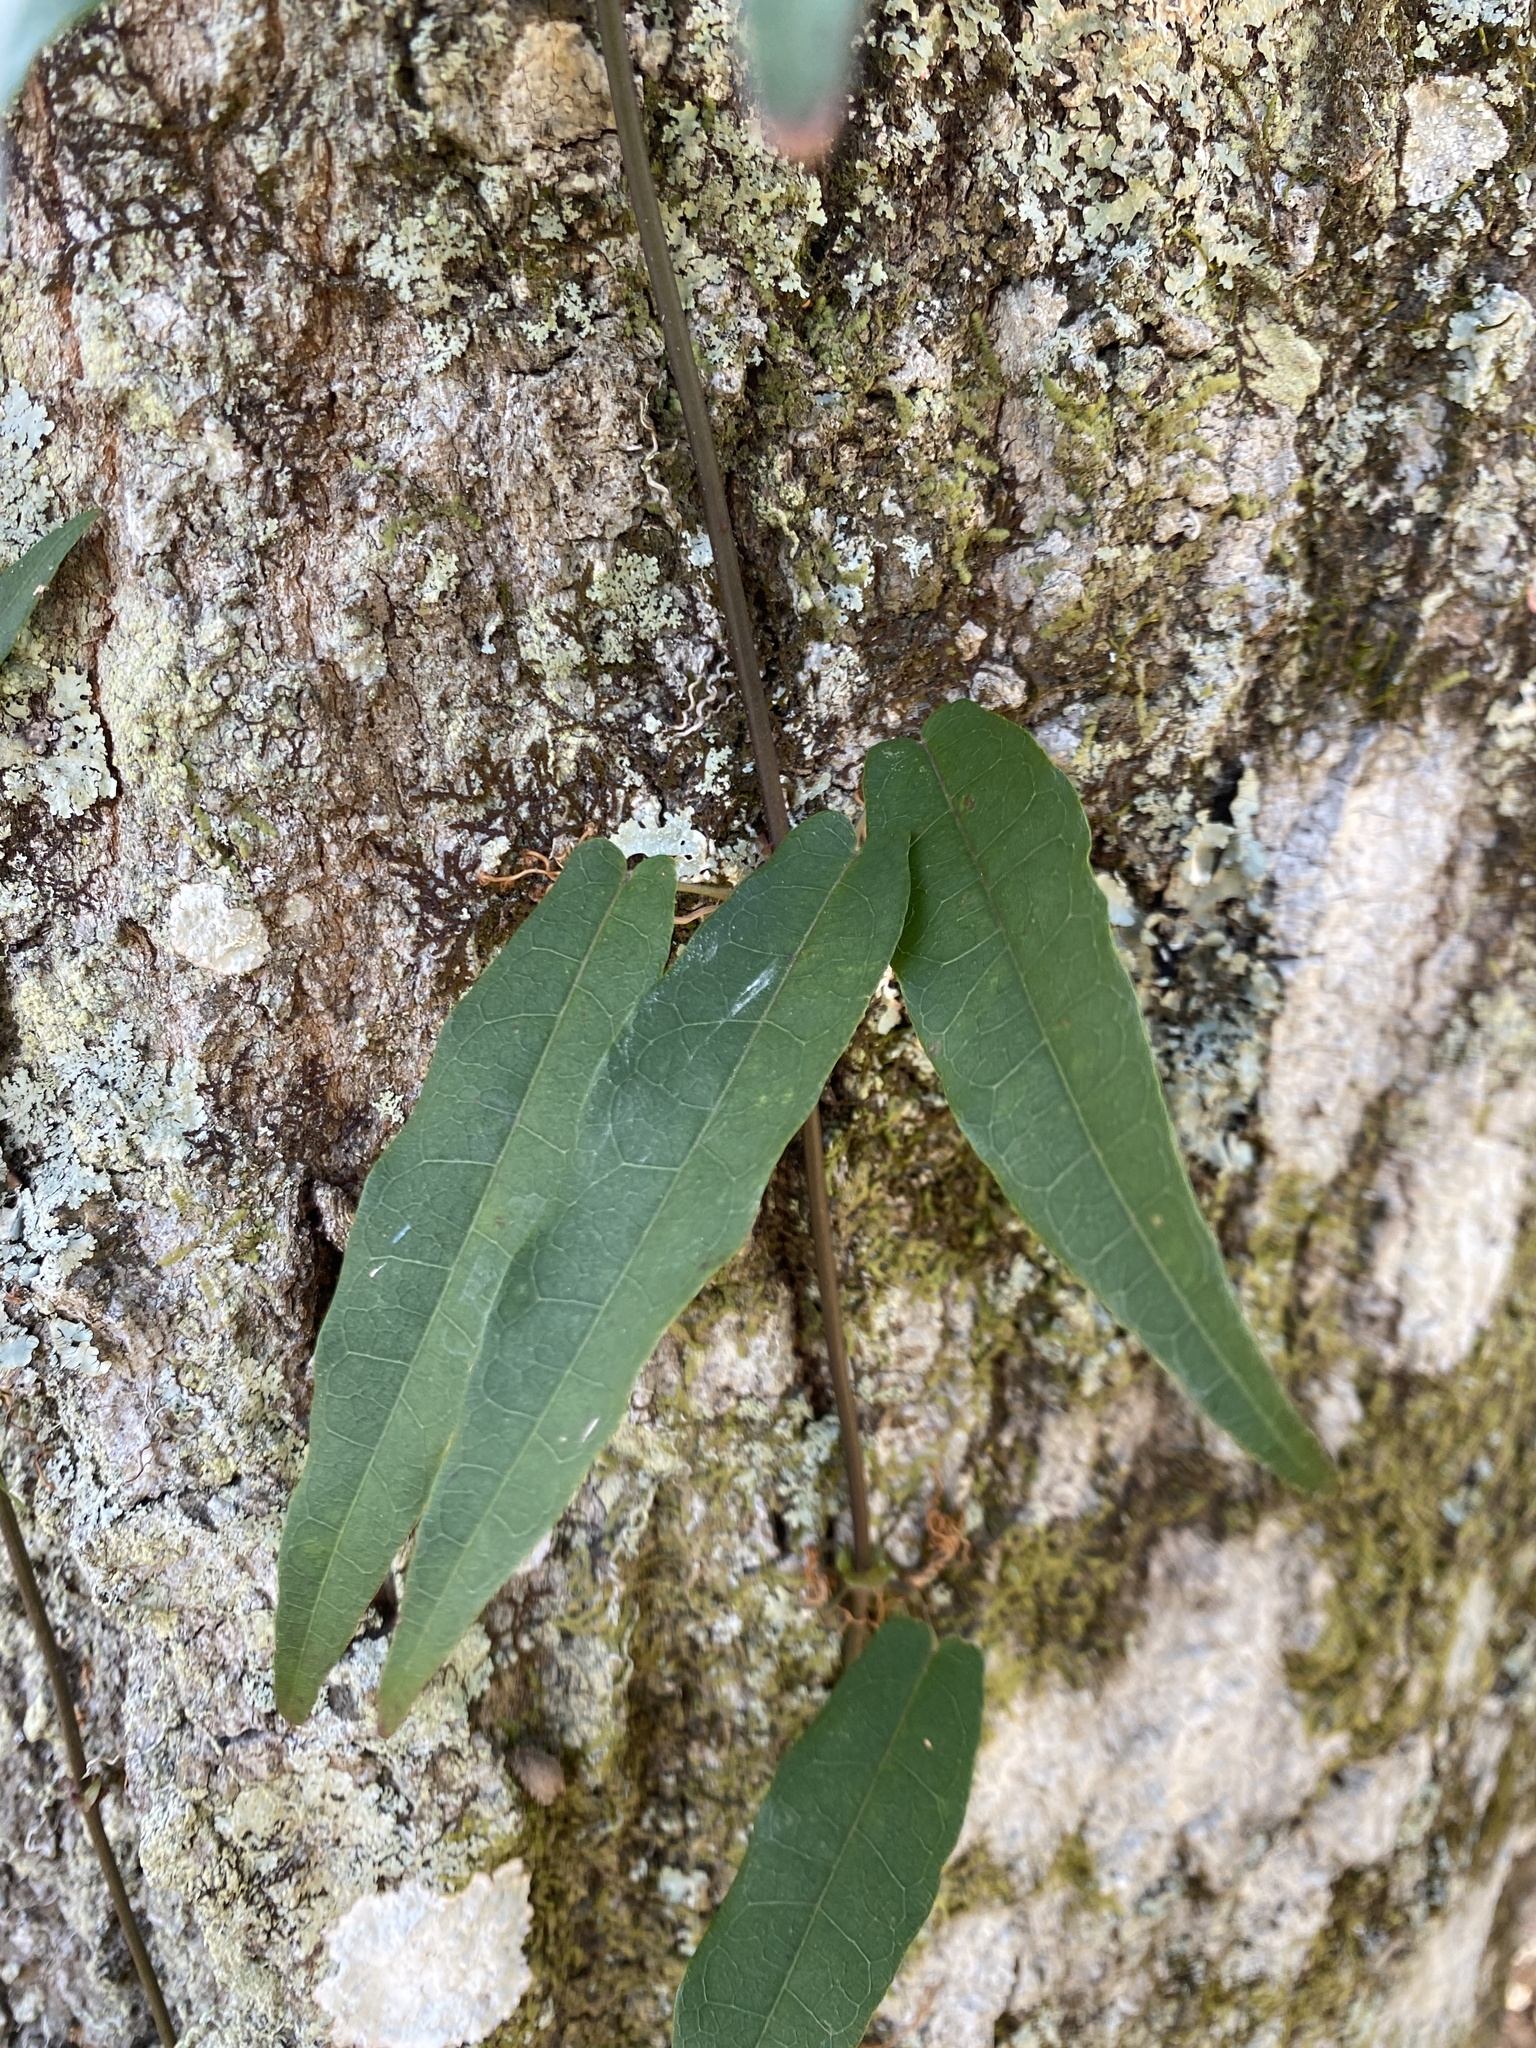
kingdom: Plantae
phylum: Tracheophyta
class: Magnoliopsida
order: Lamiales
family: Bignoniaceae
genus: Bignonia
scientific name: Bignonia capreolata
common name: Crossvine
